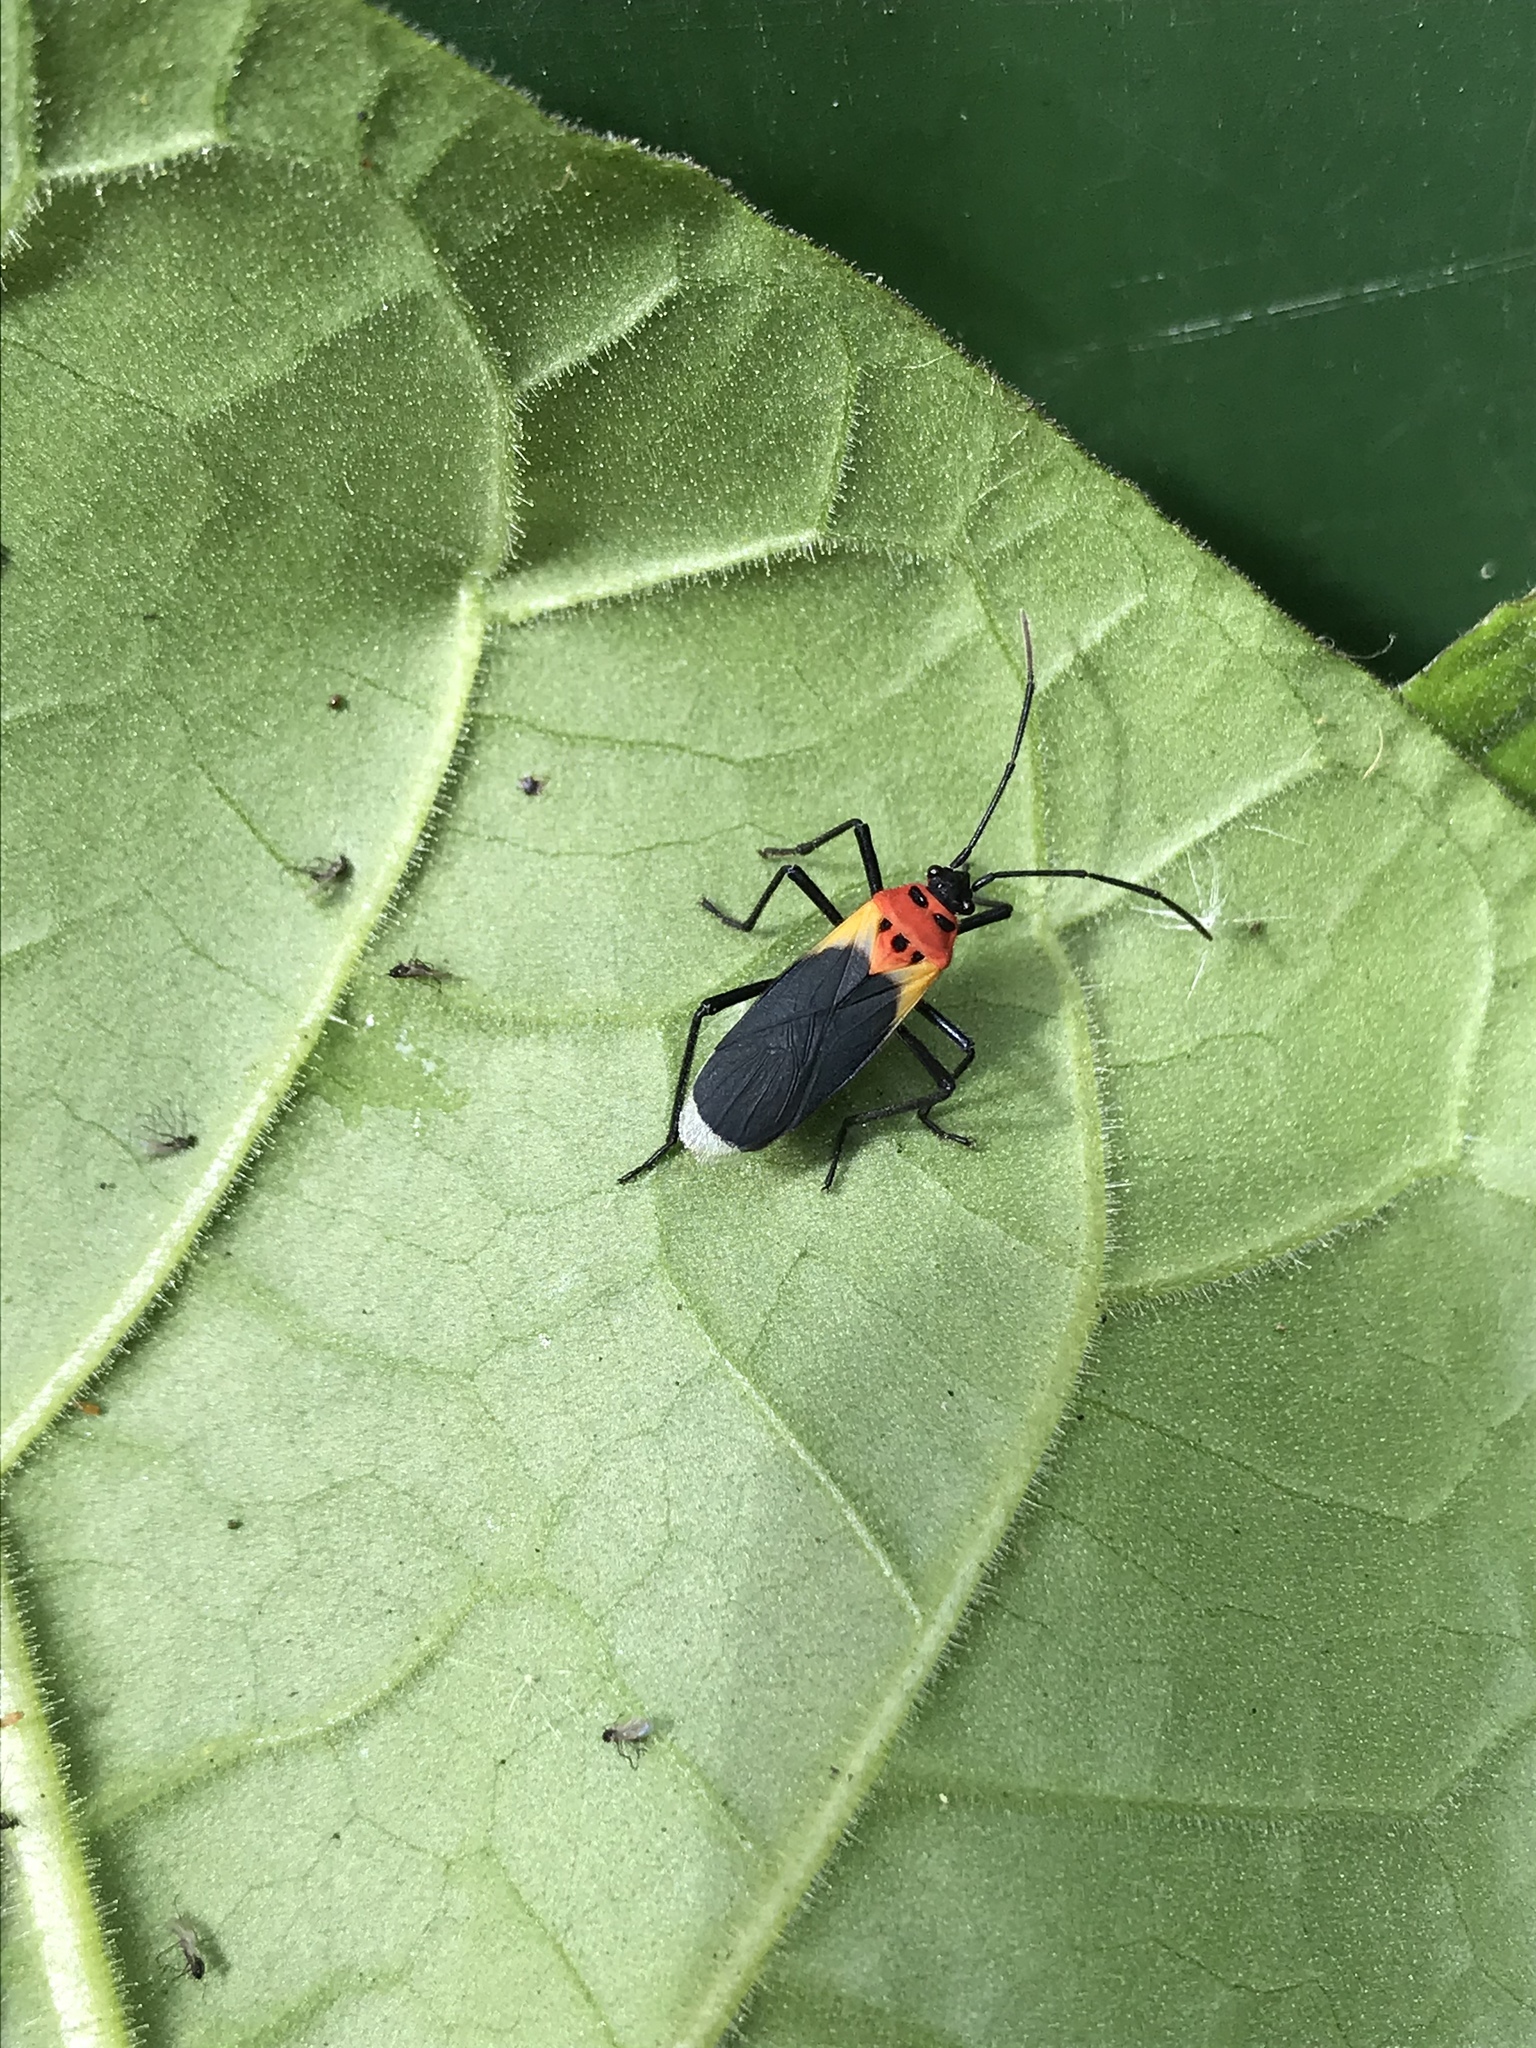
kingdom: Animalia
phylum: Arthropoda
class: Insecta
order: Hemiptera
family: Lygaeidae
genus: Acroleucus
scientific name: Acroleucus nobilis
